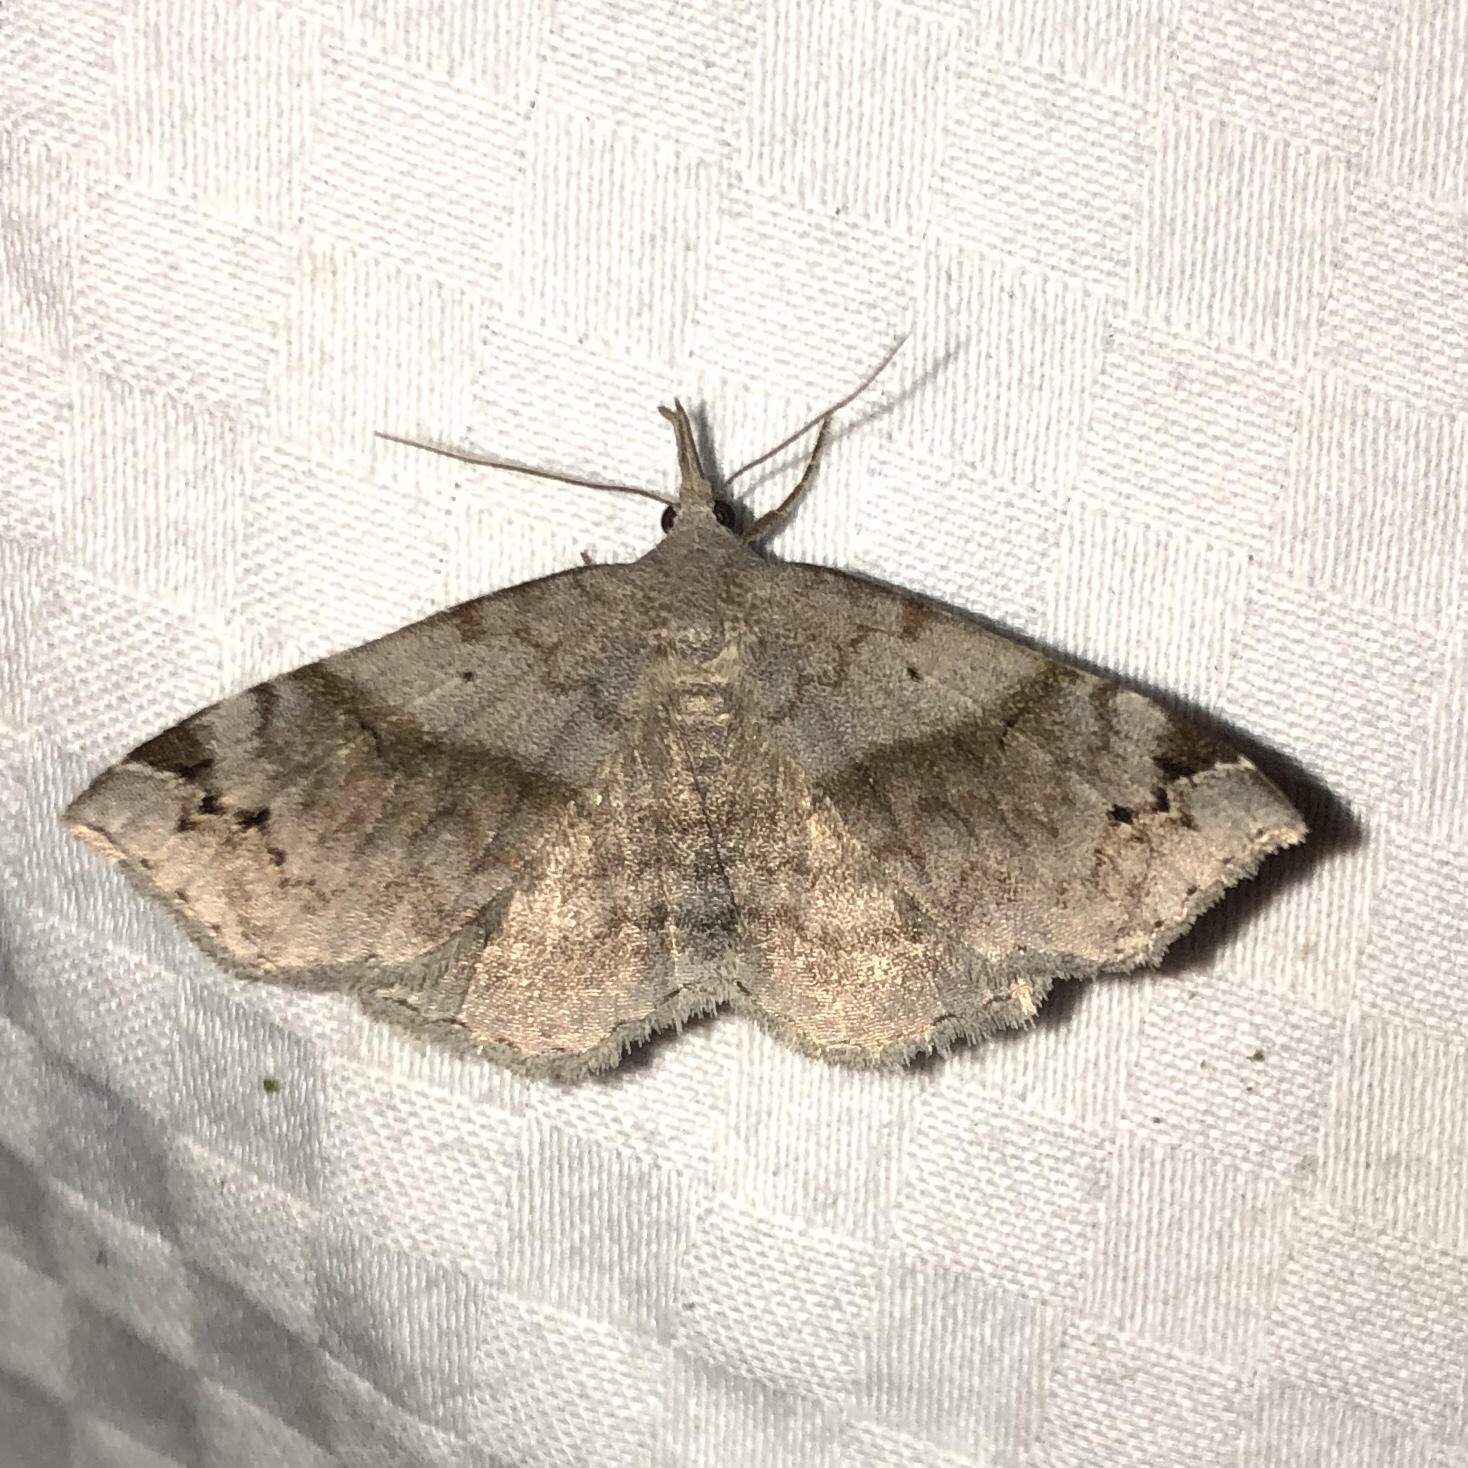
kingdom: Animalia
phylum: Arthropoda
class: Insecta
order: Lepidoptera
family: Erebidae
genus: Spargaloma
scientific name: Spargaloma sexpunctata
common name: Six-spotted gray
